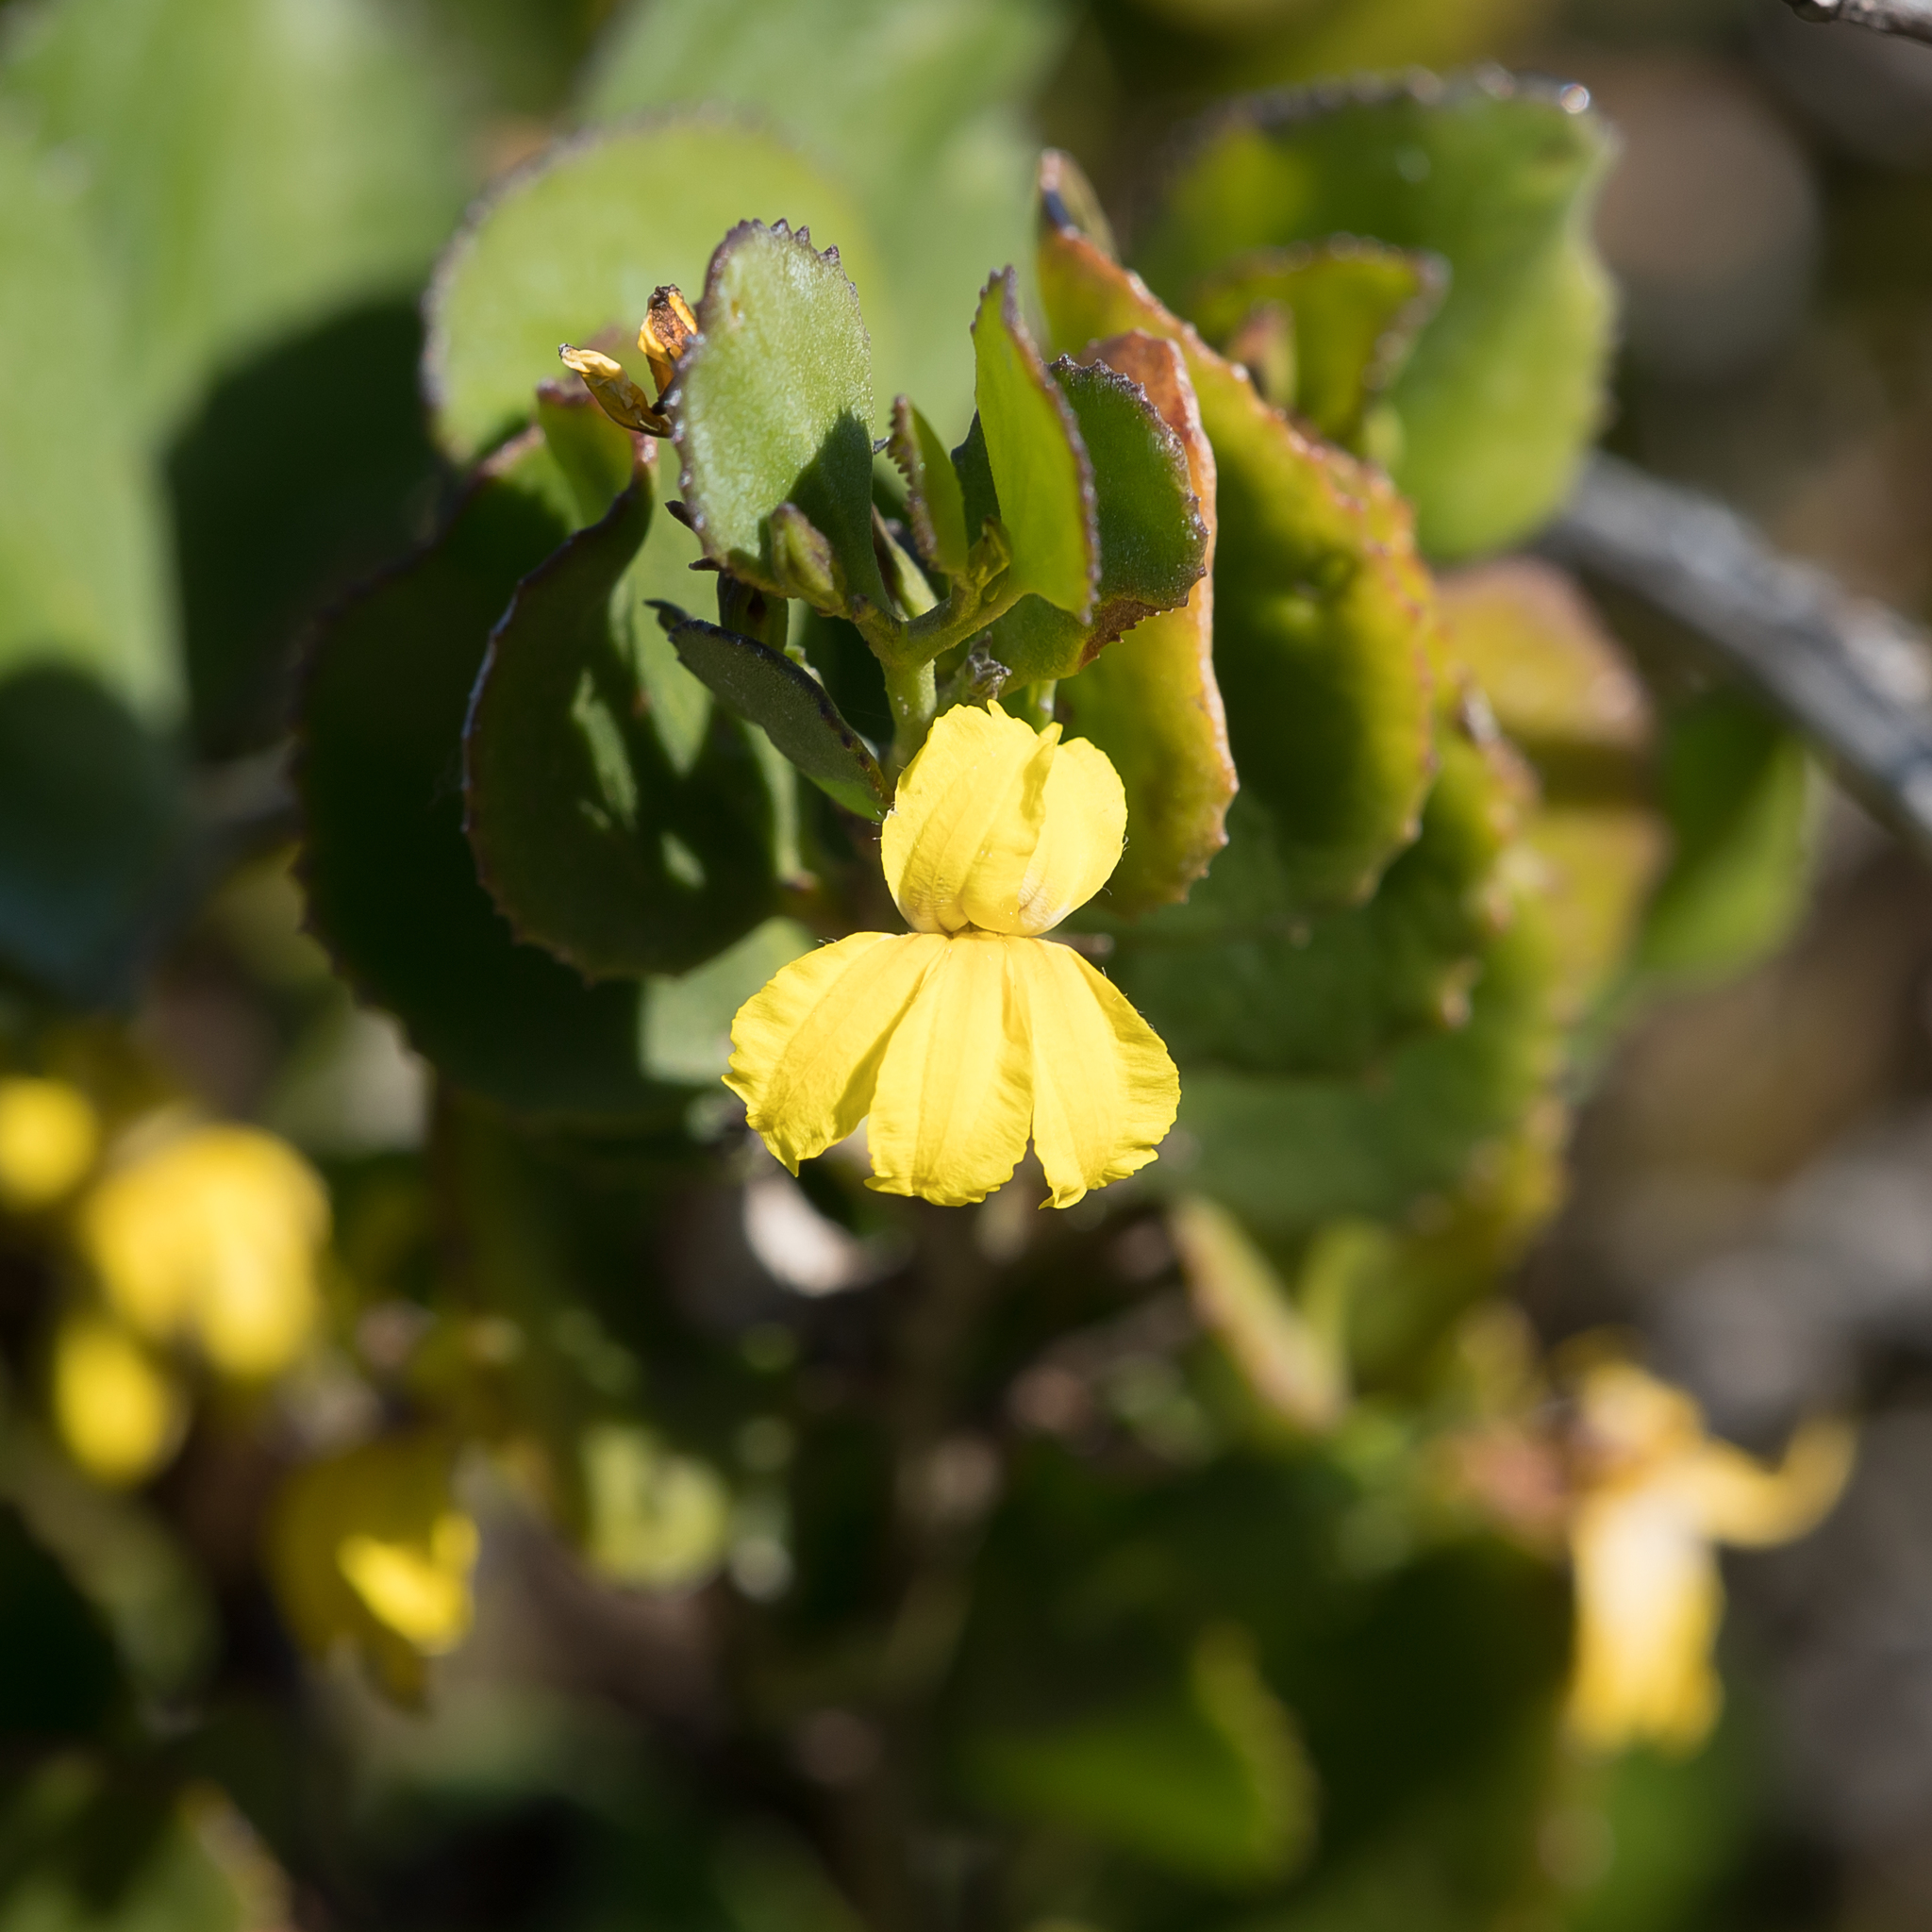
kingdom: Plantae
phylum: Tracheophyta
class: Magnoliopsida
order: Asterales
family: Goodeniaceae
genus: Goodenia
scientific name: Goodenia varia
